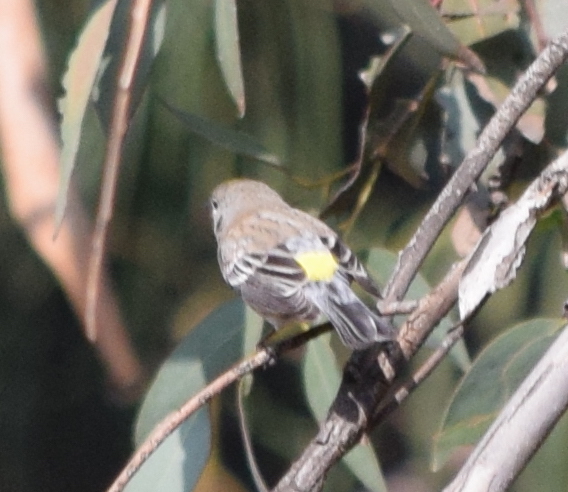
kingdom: Animalia
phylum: Chordata
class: Aves
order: Passeriformes
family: Parulidae
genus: Setophaga
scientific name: Setophaga coronata
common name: Myrtle warbler
